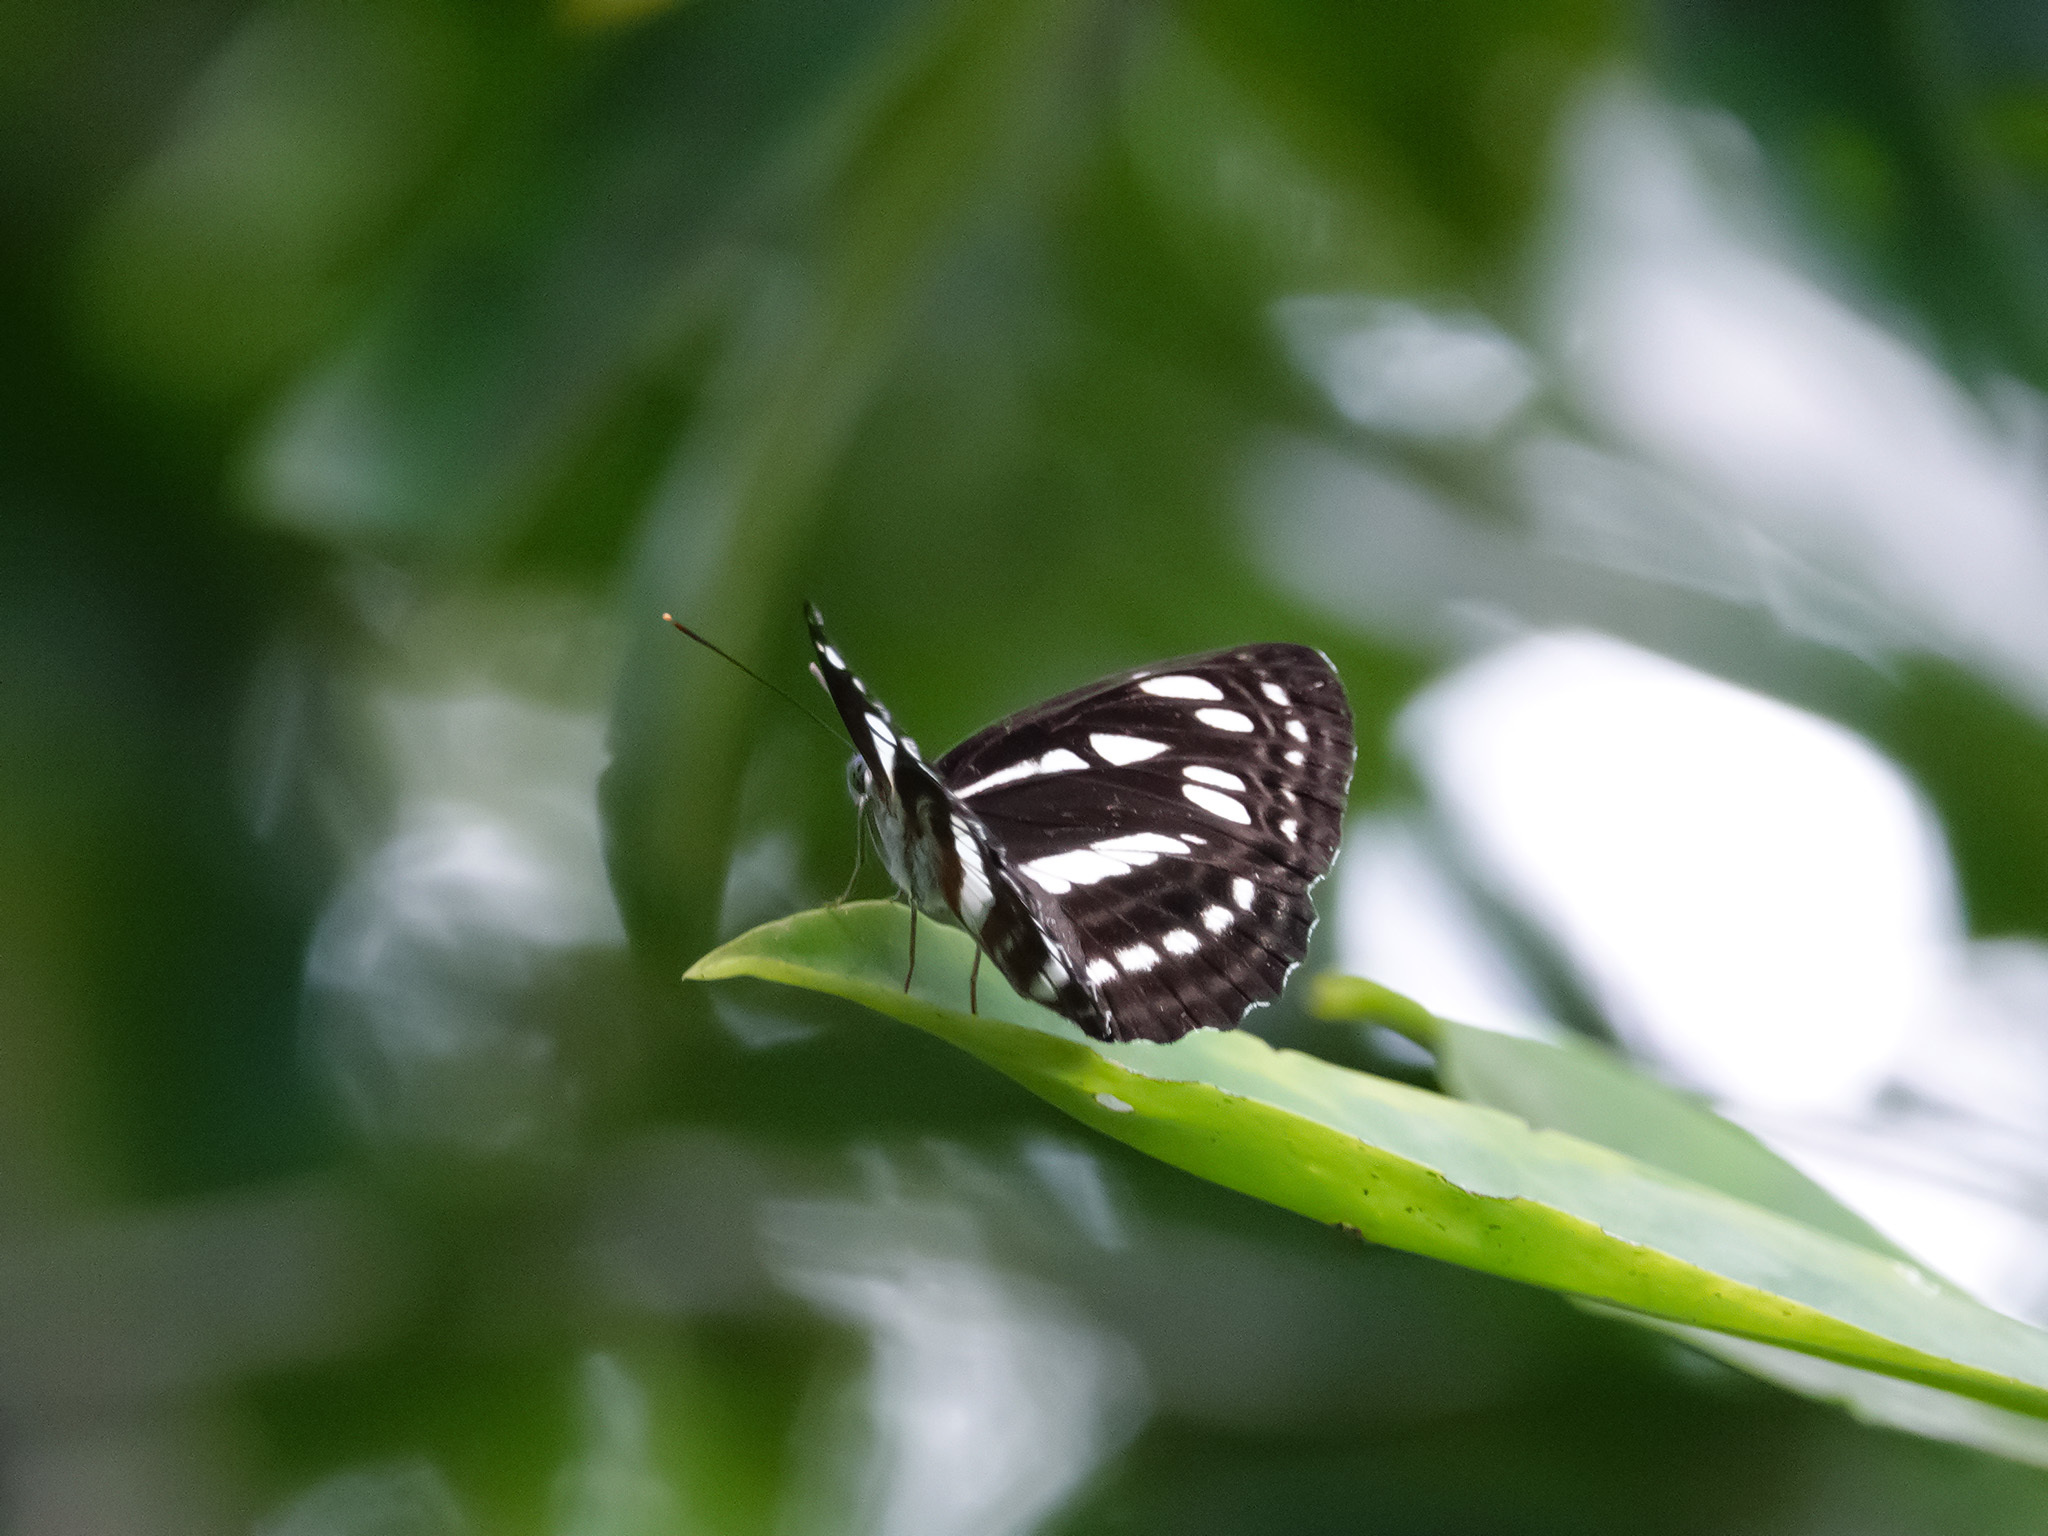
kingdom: Animalia
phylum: Arthropoda
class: Insecta
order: Lepidoptera
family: Nymphalidae
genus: Phaedyma
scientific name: Phaedyma columella
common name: Short banded sailer
